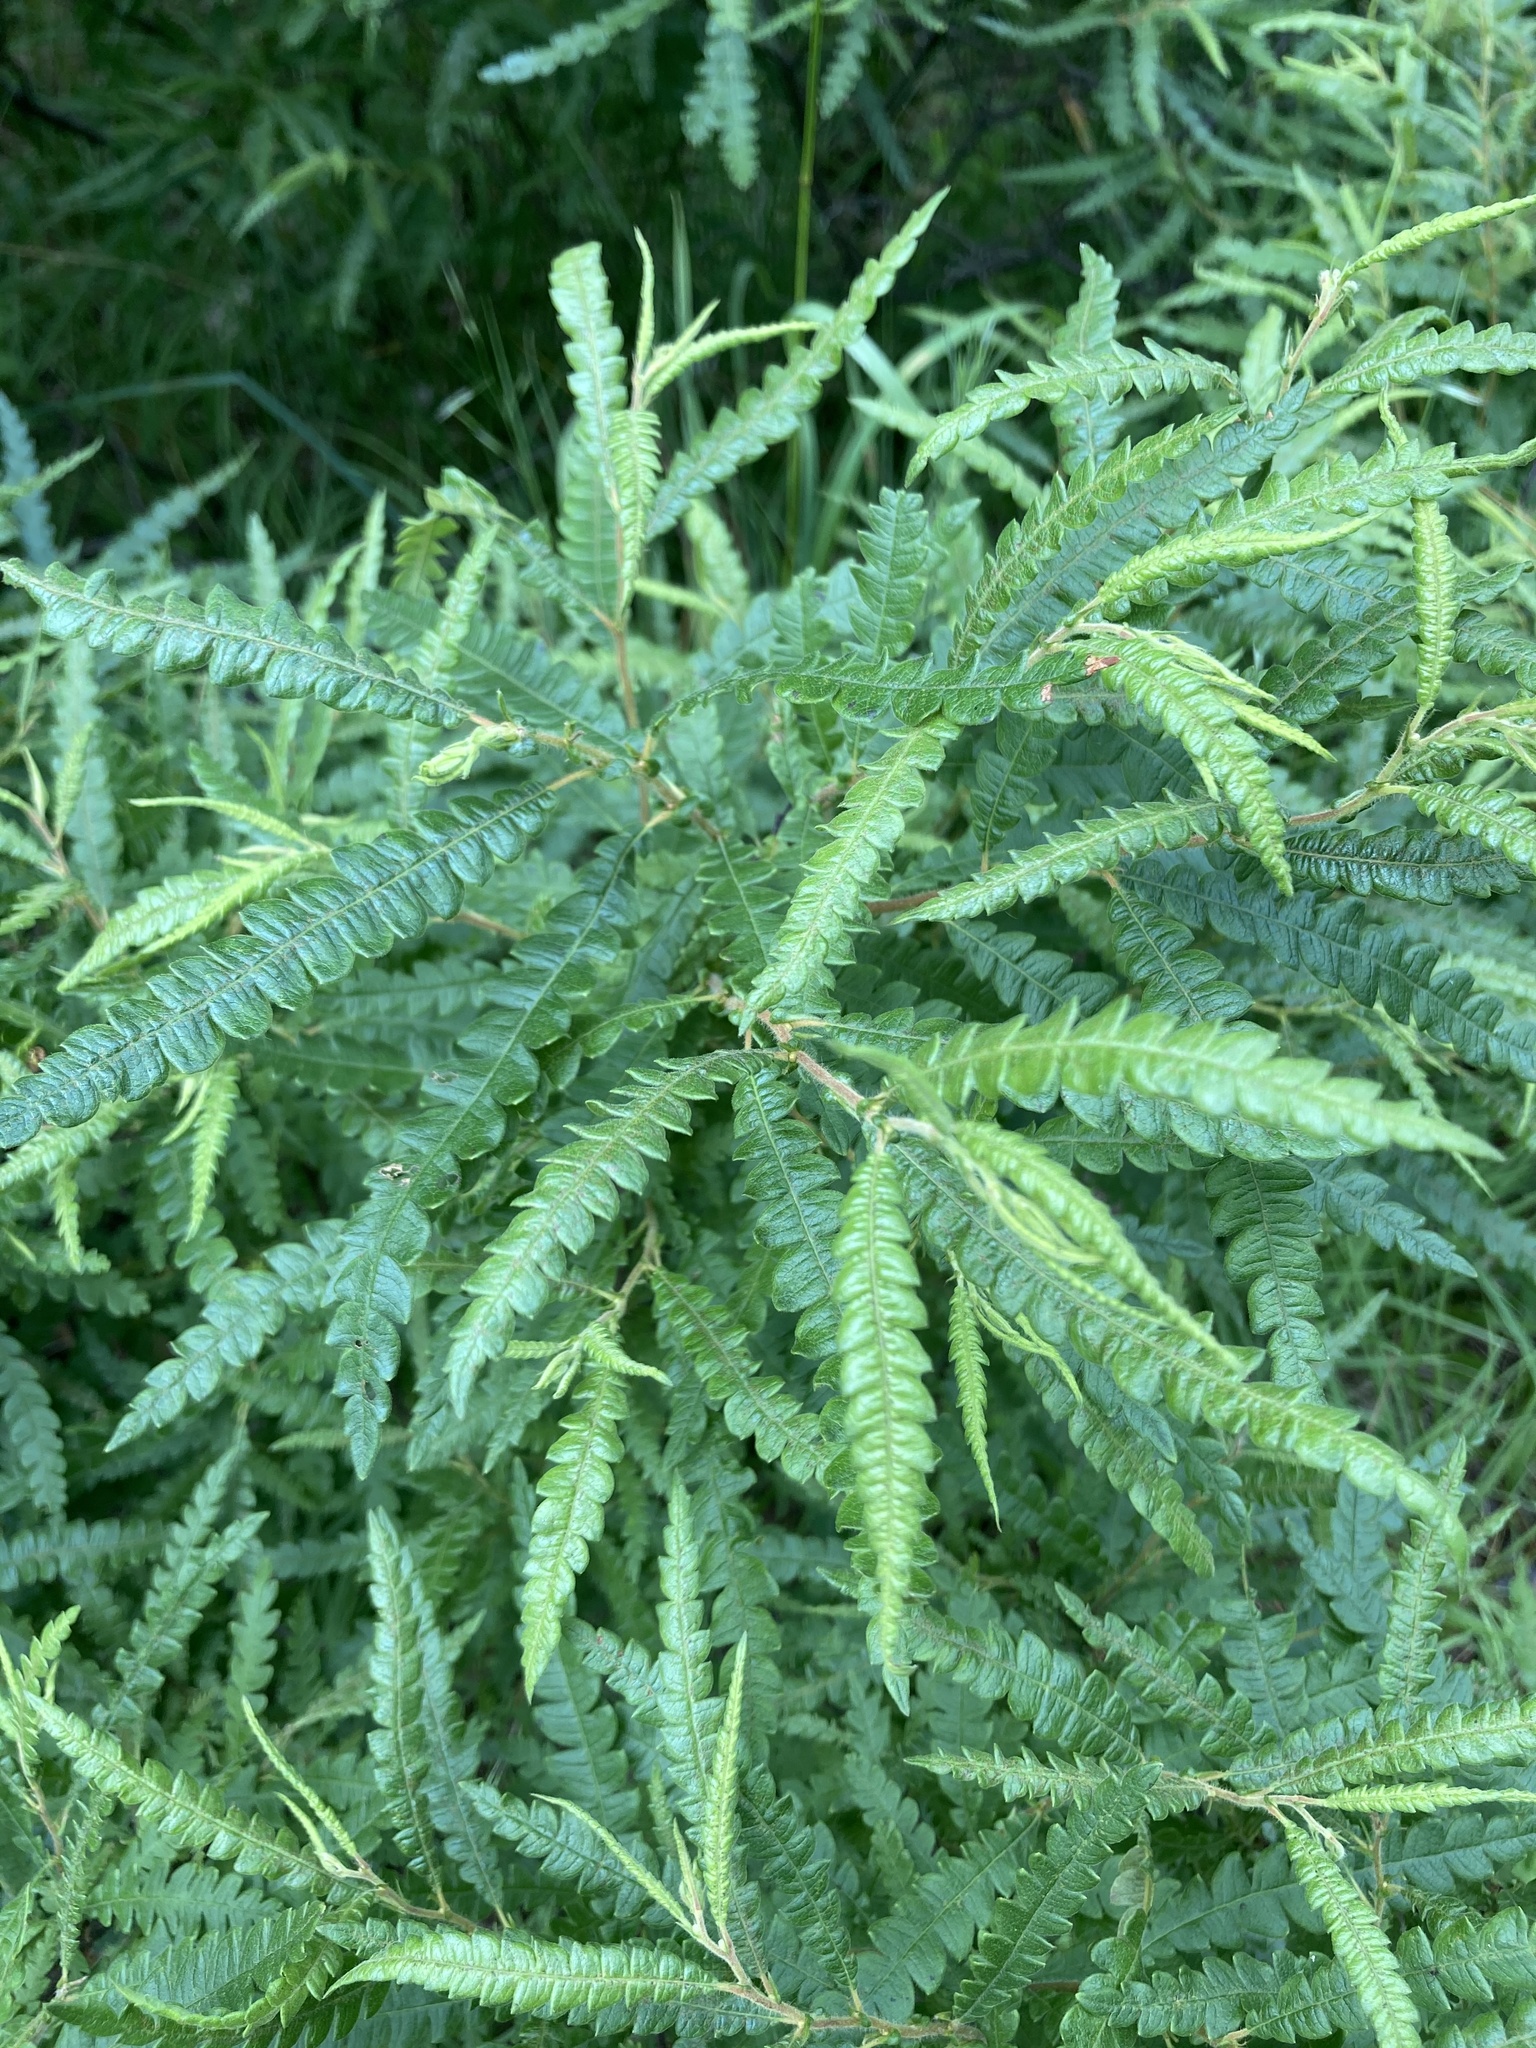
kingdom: Plantae
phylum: Tracheophyta
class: Magnoliopsida
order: Fagales
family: Myricaceae
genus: Comptonia
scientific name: Comptonia peregrina
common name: Sweet-fern
